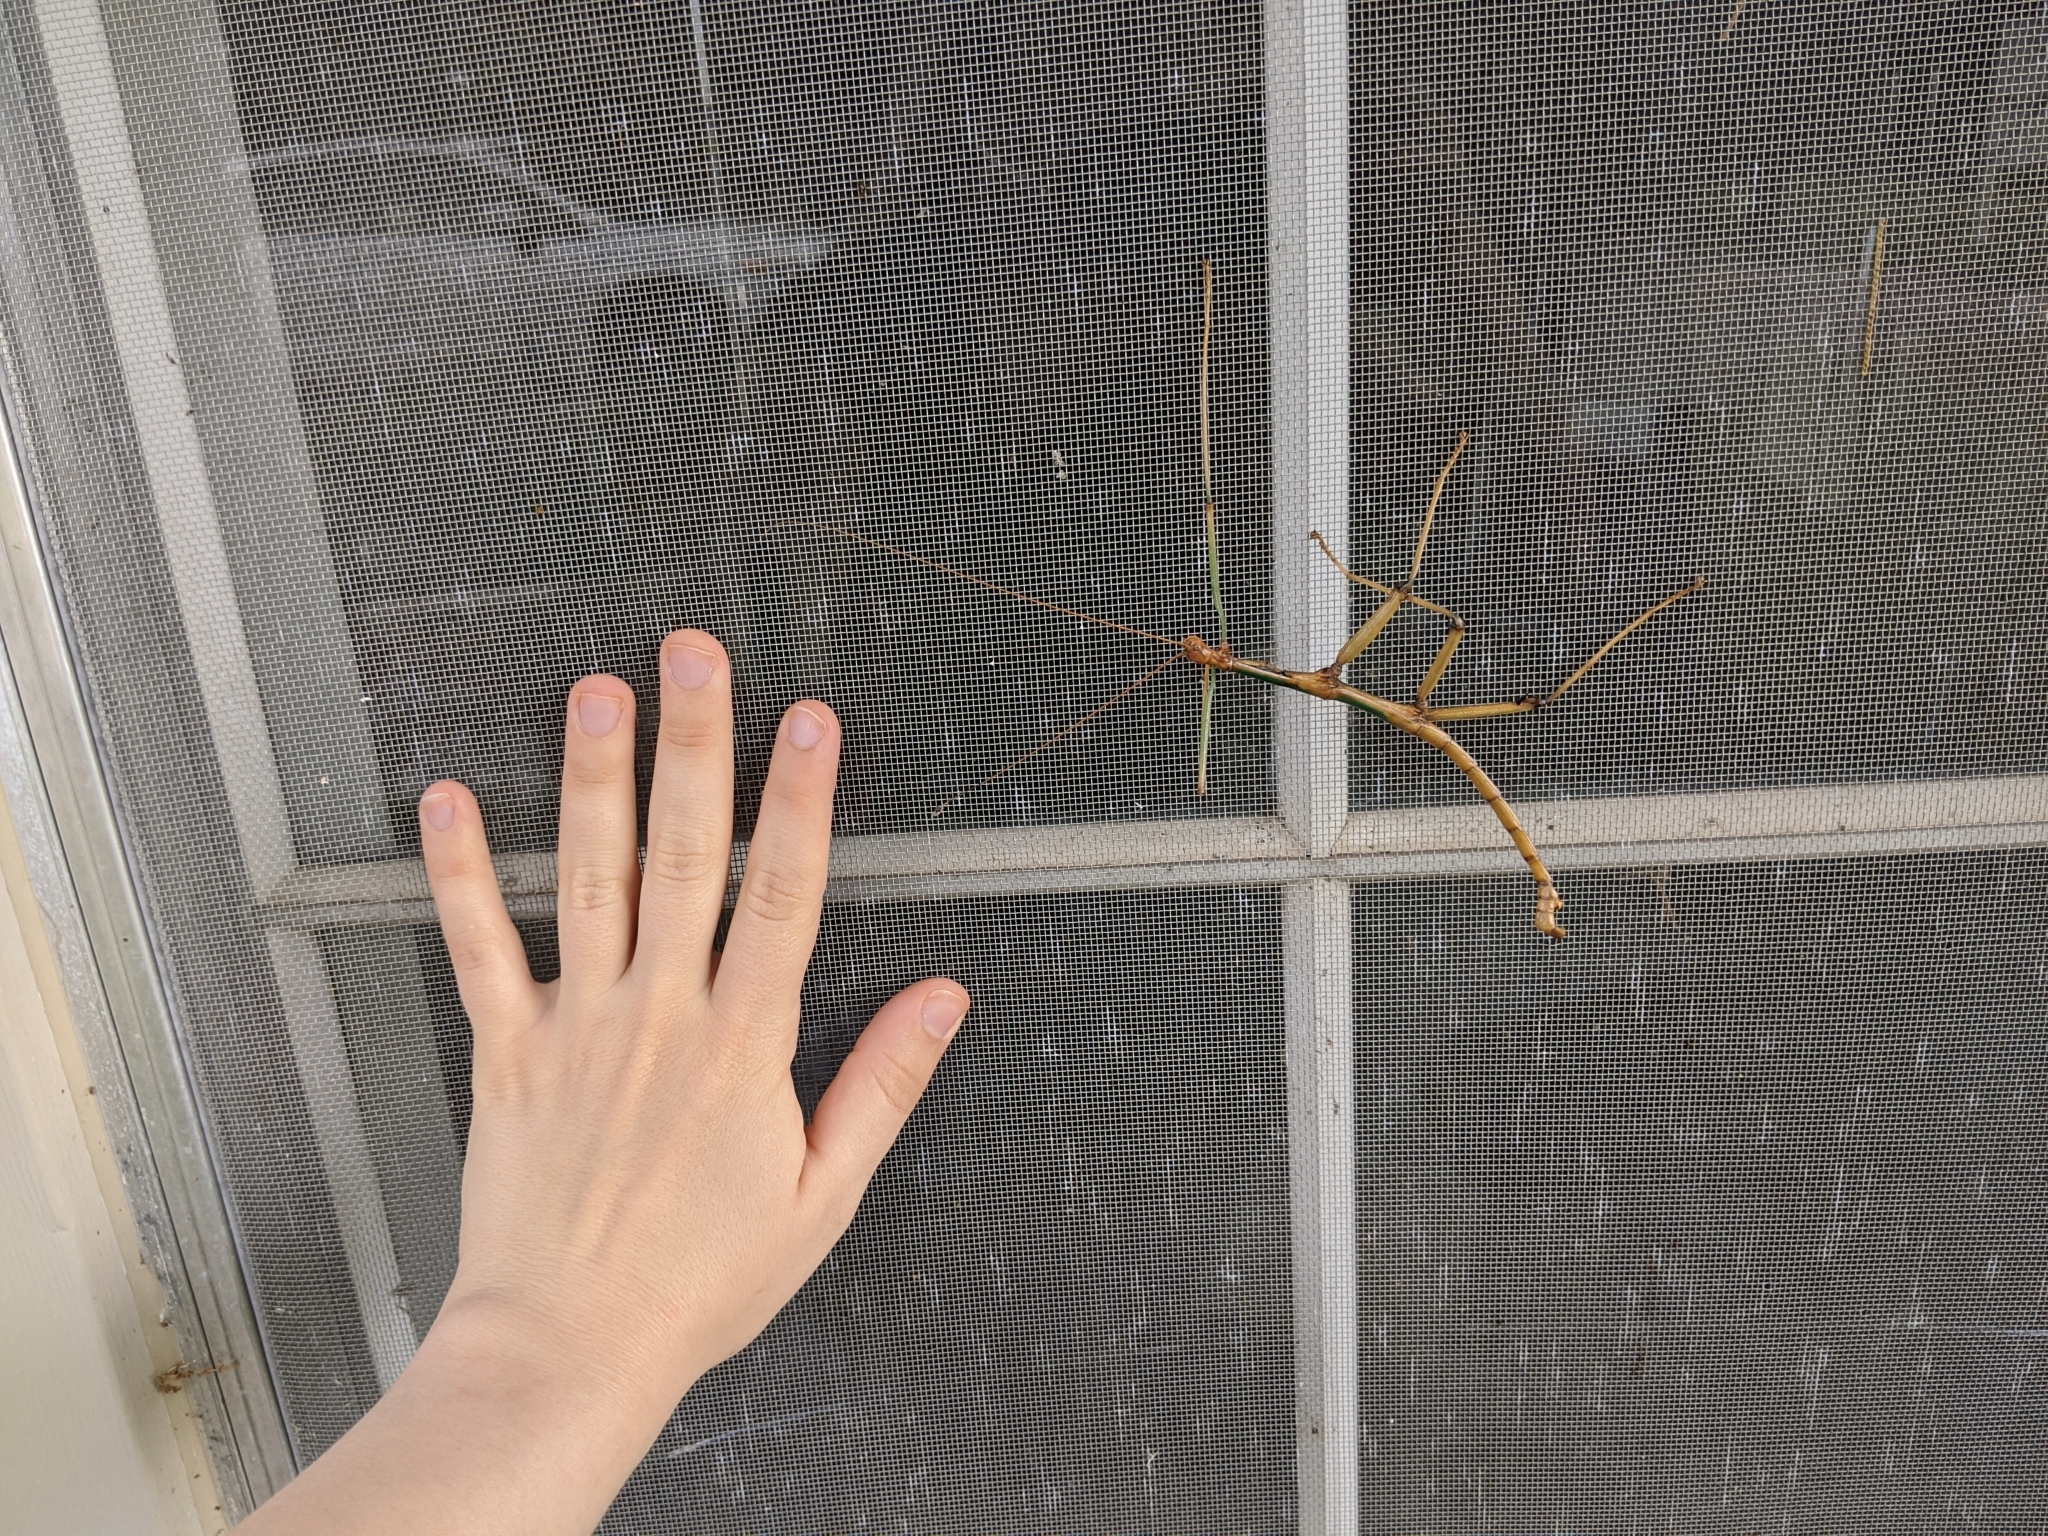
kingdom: Animalia
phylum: Arthropoda
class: Insecta
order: Phasmida
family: Diapheromeridae
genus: Megaphasma
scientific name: Megaphasma denticrus
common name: Giant walkingstick
